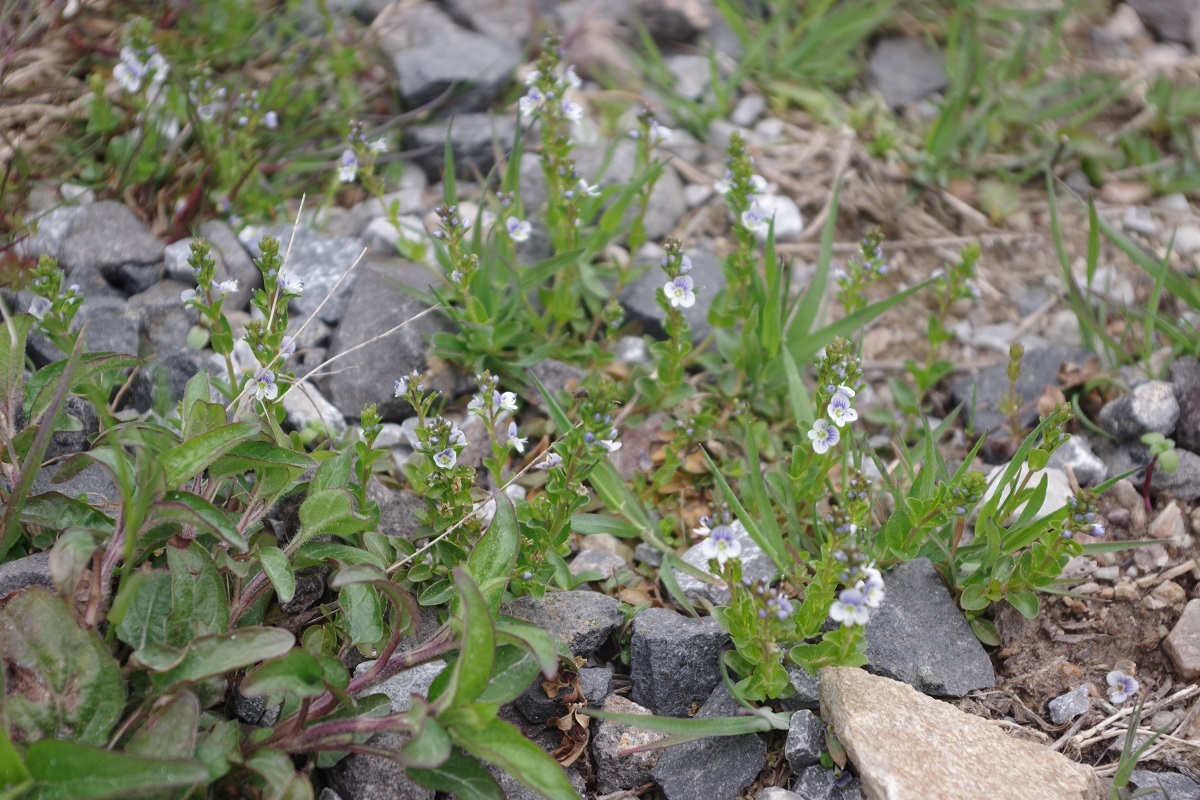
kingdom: Plantae
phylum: Tracheophyta
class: Magnoliopsida
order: Lamiales
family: Plantaginaceae
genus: Veronica
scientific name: Veronica serpyllifolia
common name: Thyme-leaved speedwell
